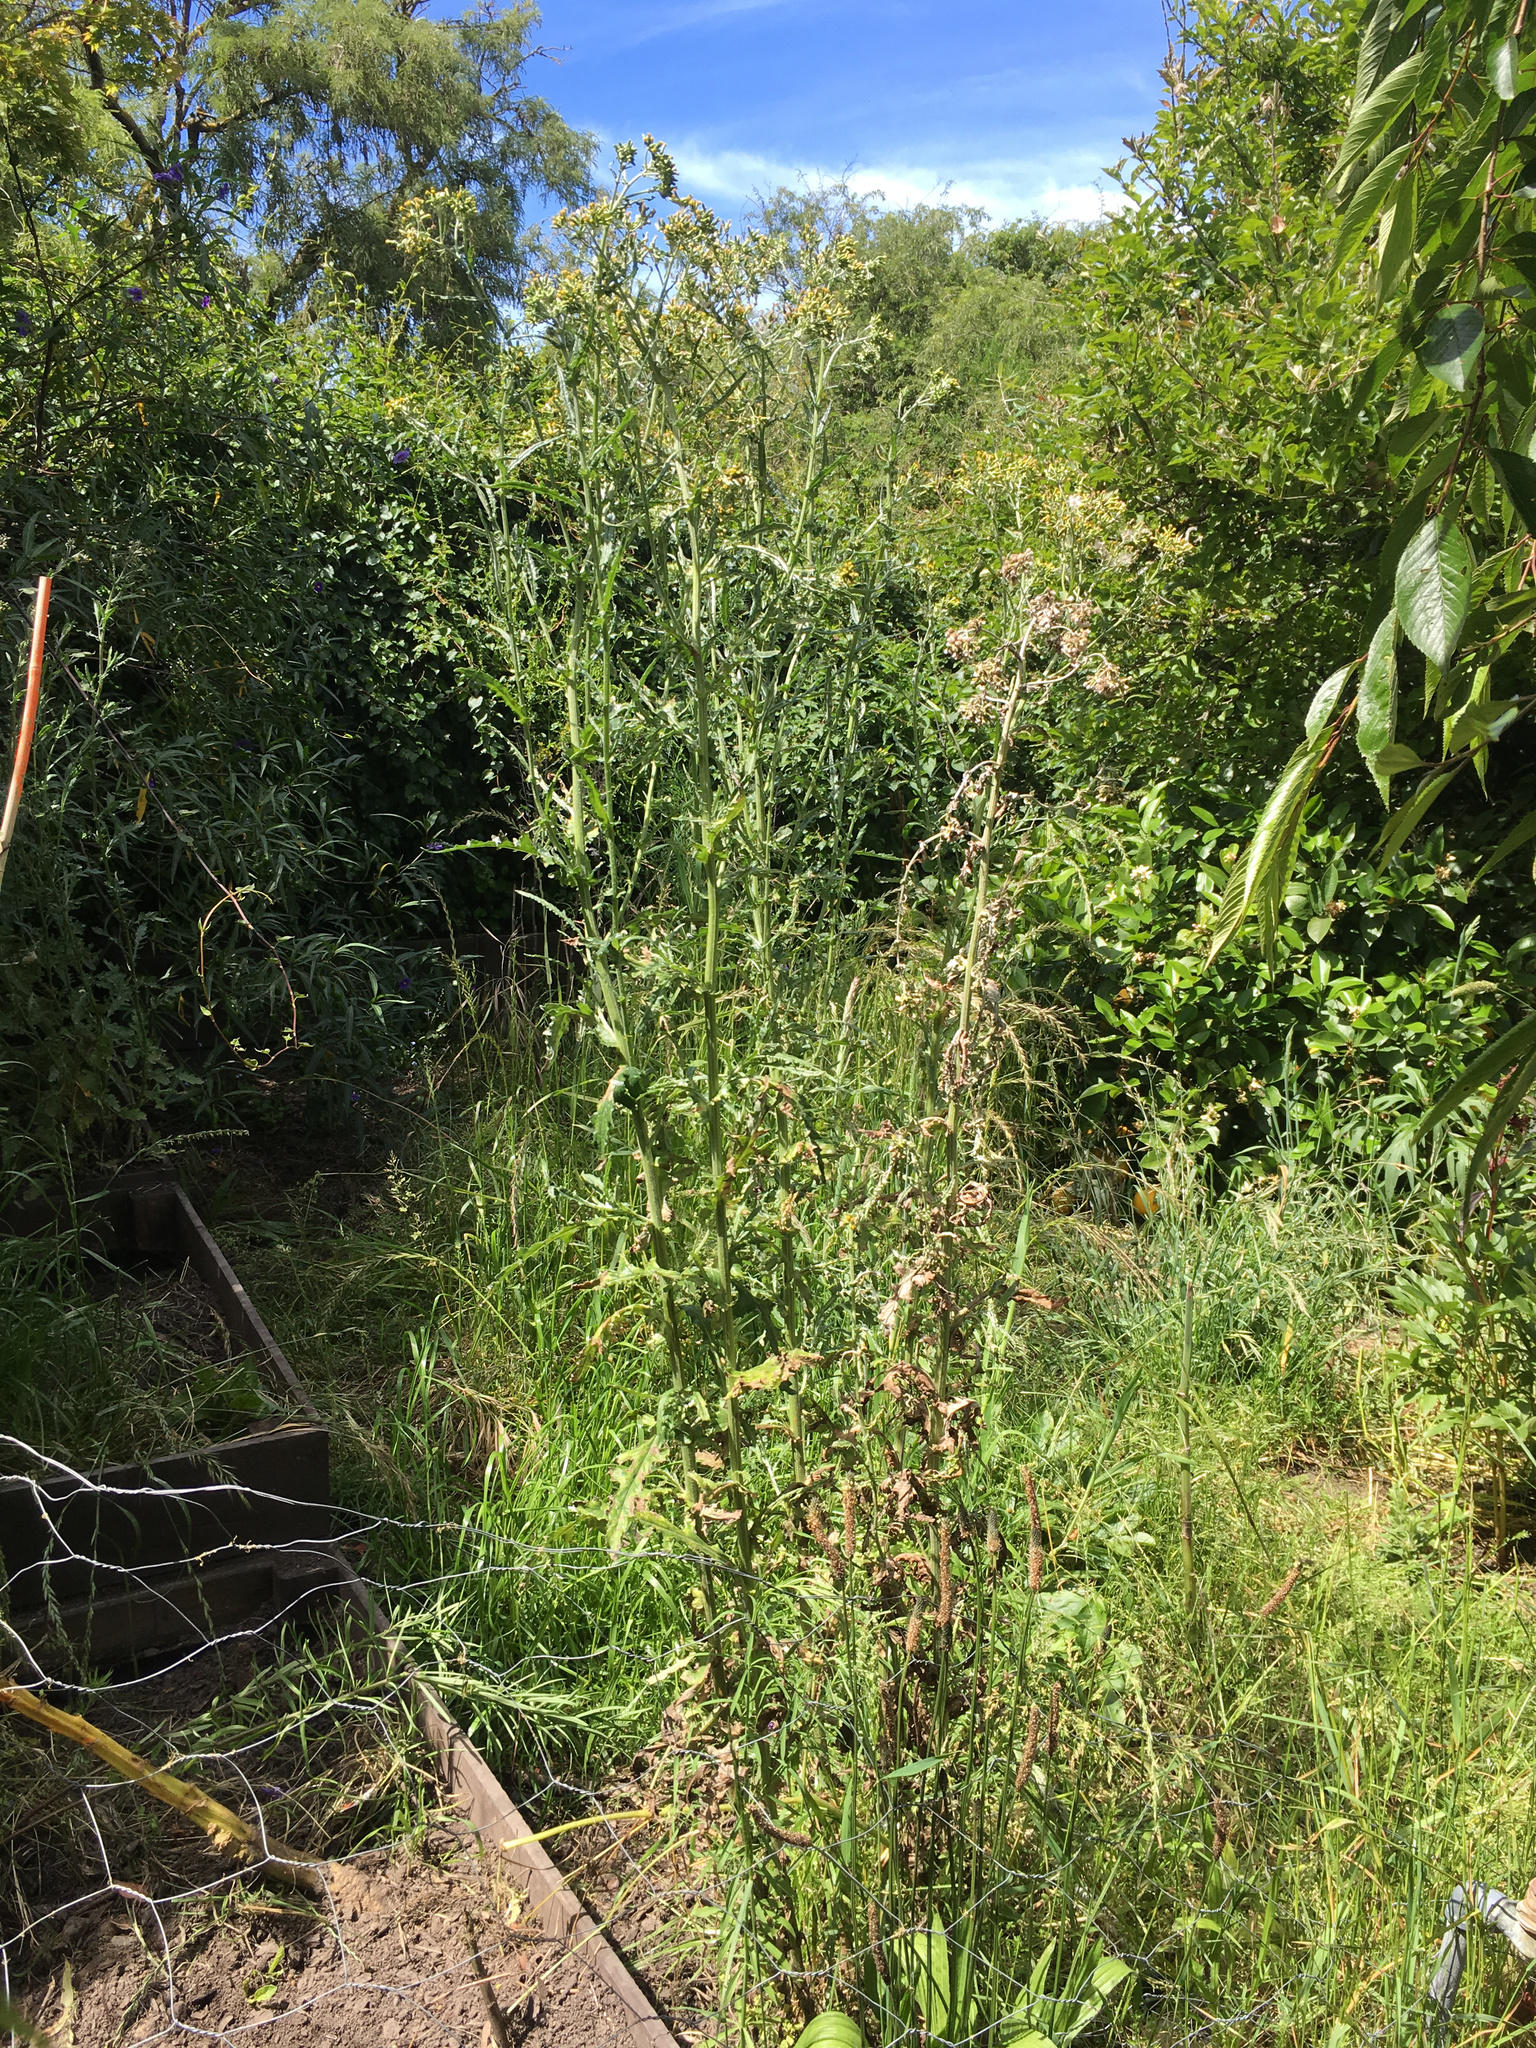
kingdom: Plantae
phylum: Tracheophyta
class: Magnoliopsida
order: Asterales
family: Asteraceae
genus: Senecio
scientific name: Senecio glomeratus
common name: Cutleaf burnweed
